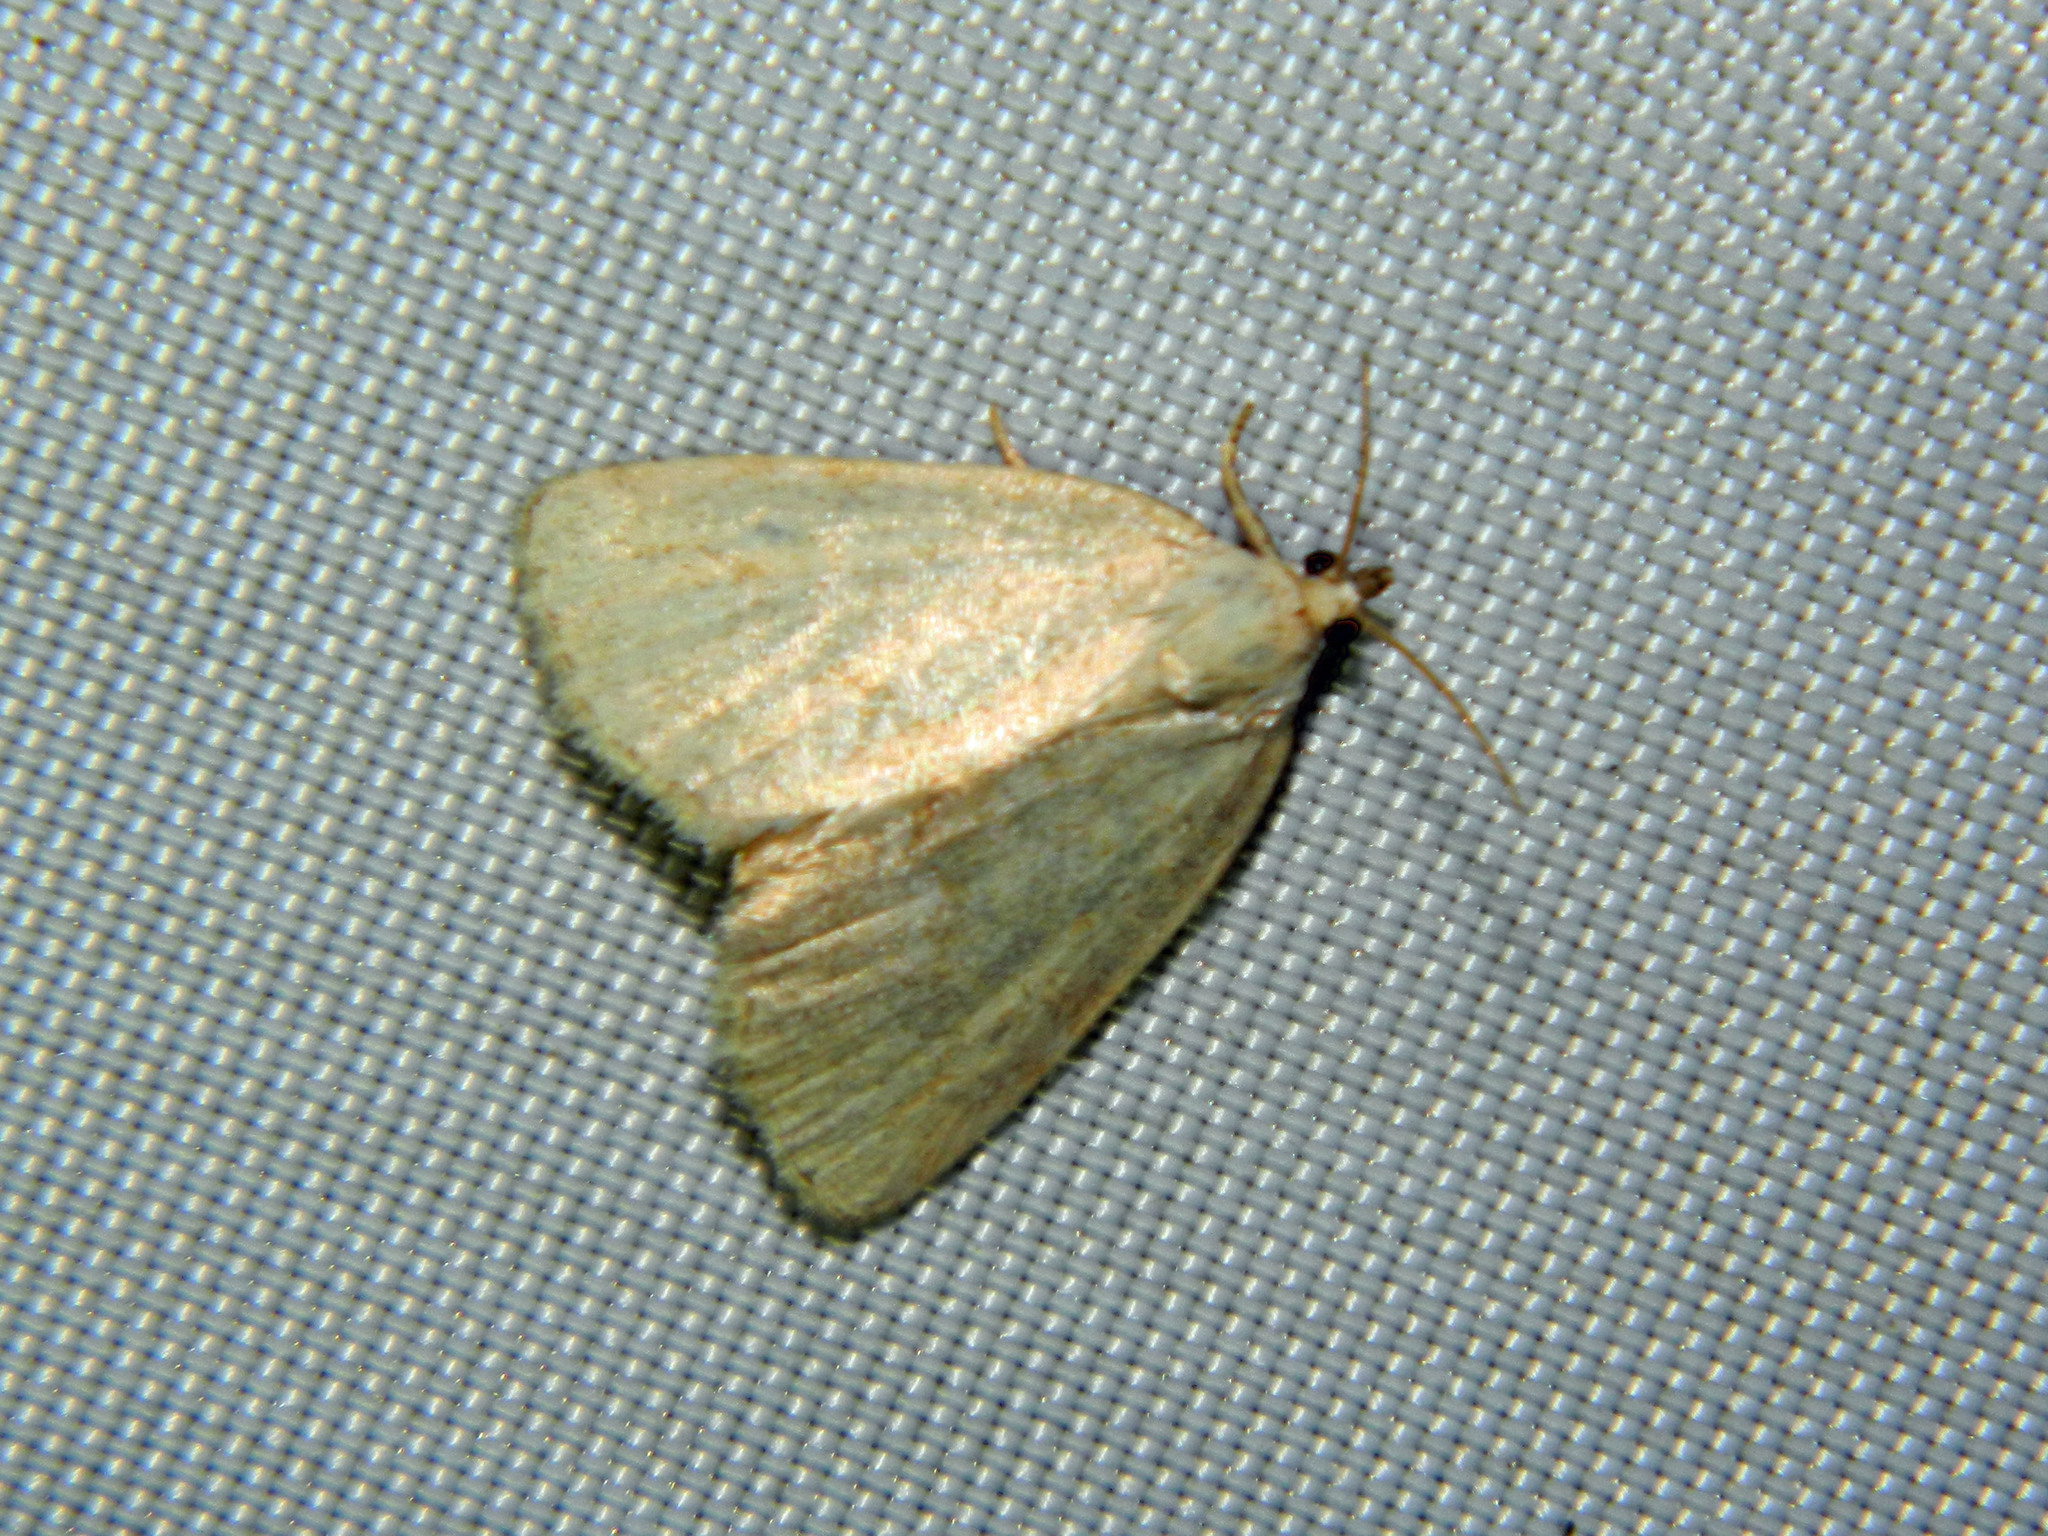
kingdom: Animalia
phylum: Arthropoda
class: Insecta
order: Lepidoptera
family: Noctuidae
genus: Protodeltote
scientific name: Protodeltote albidula
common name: Pale glyph
